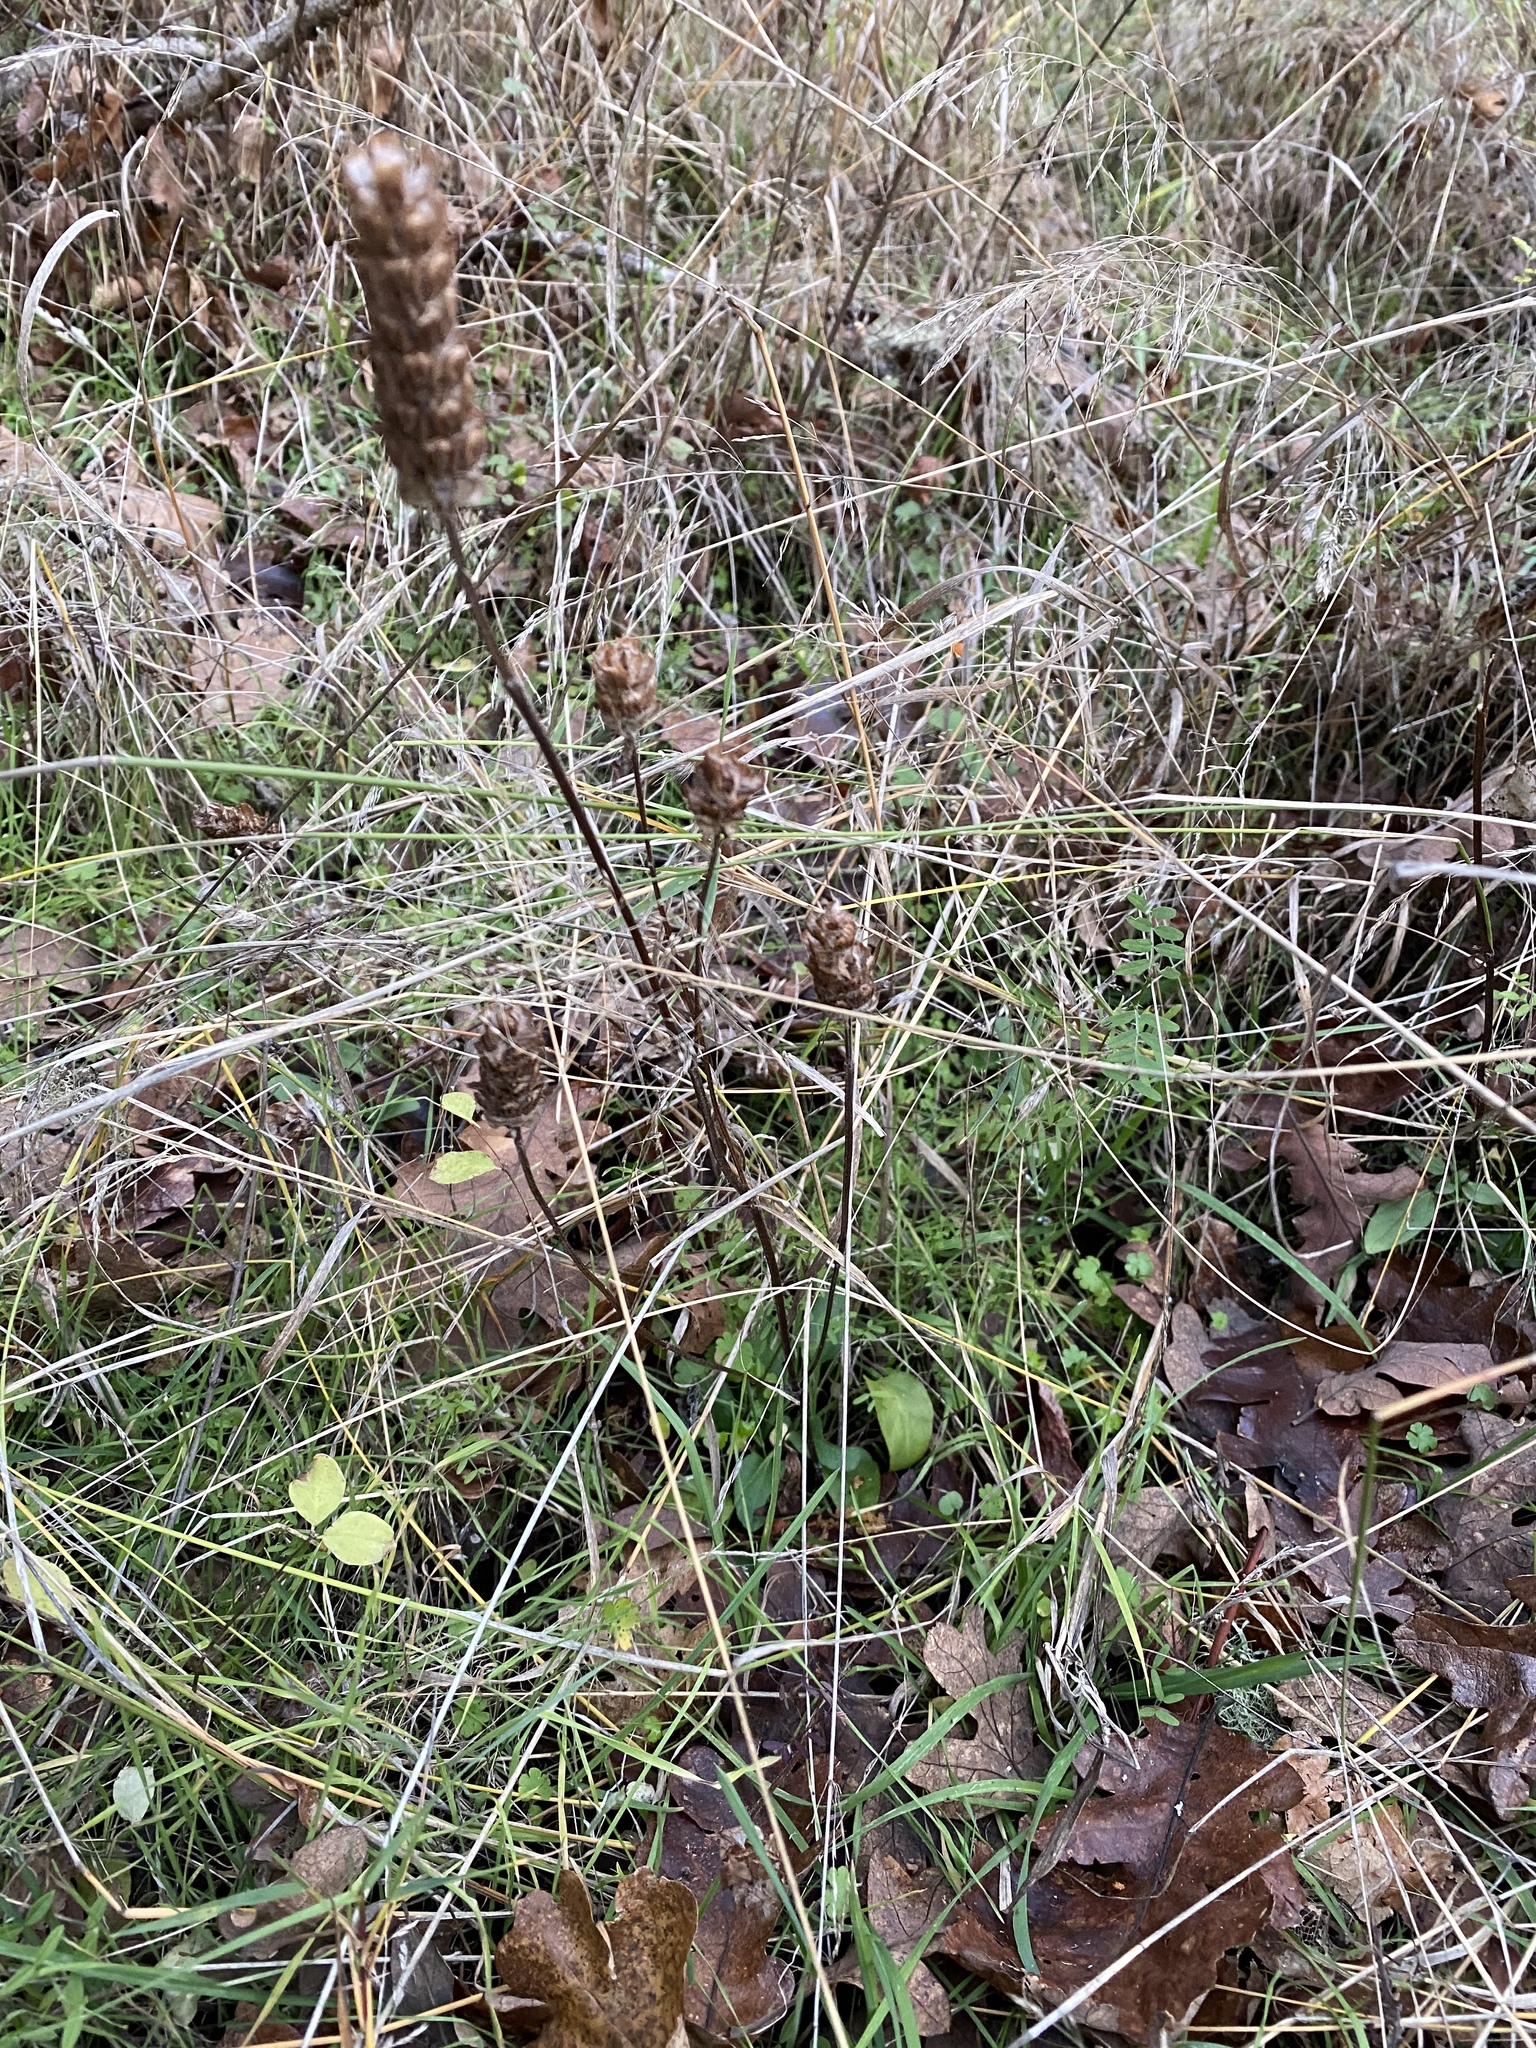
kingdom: Plantae
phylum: Tracheophyta
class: Magnoliopsida
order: Lamiales
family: Lamiaceae
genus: Prunella
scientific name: Prunella vulgaris
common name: Heal-all
